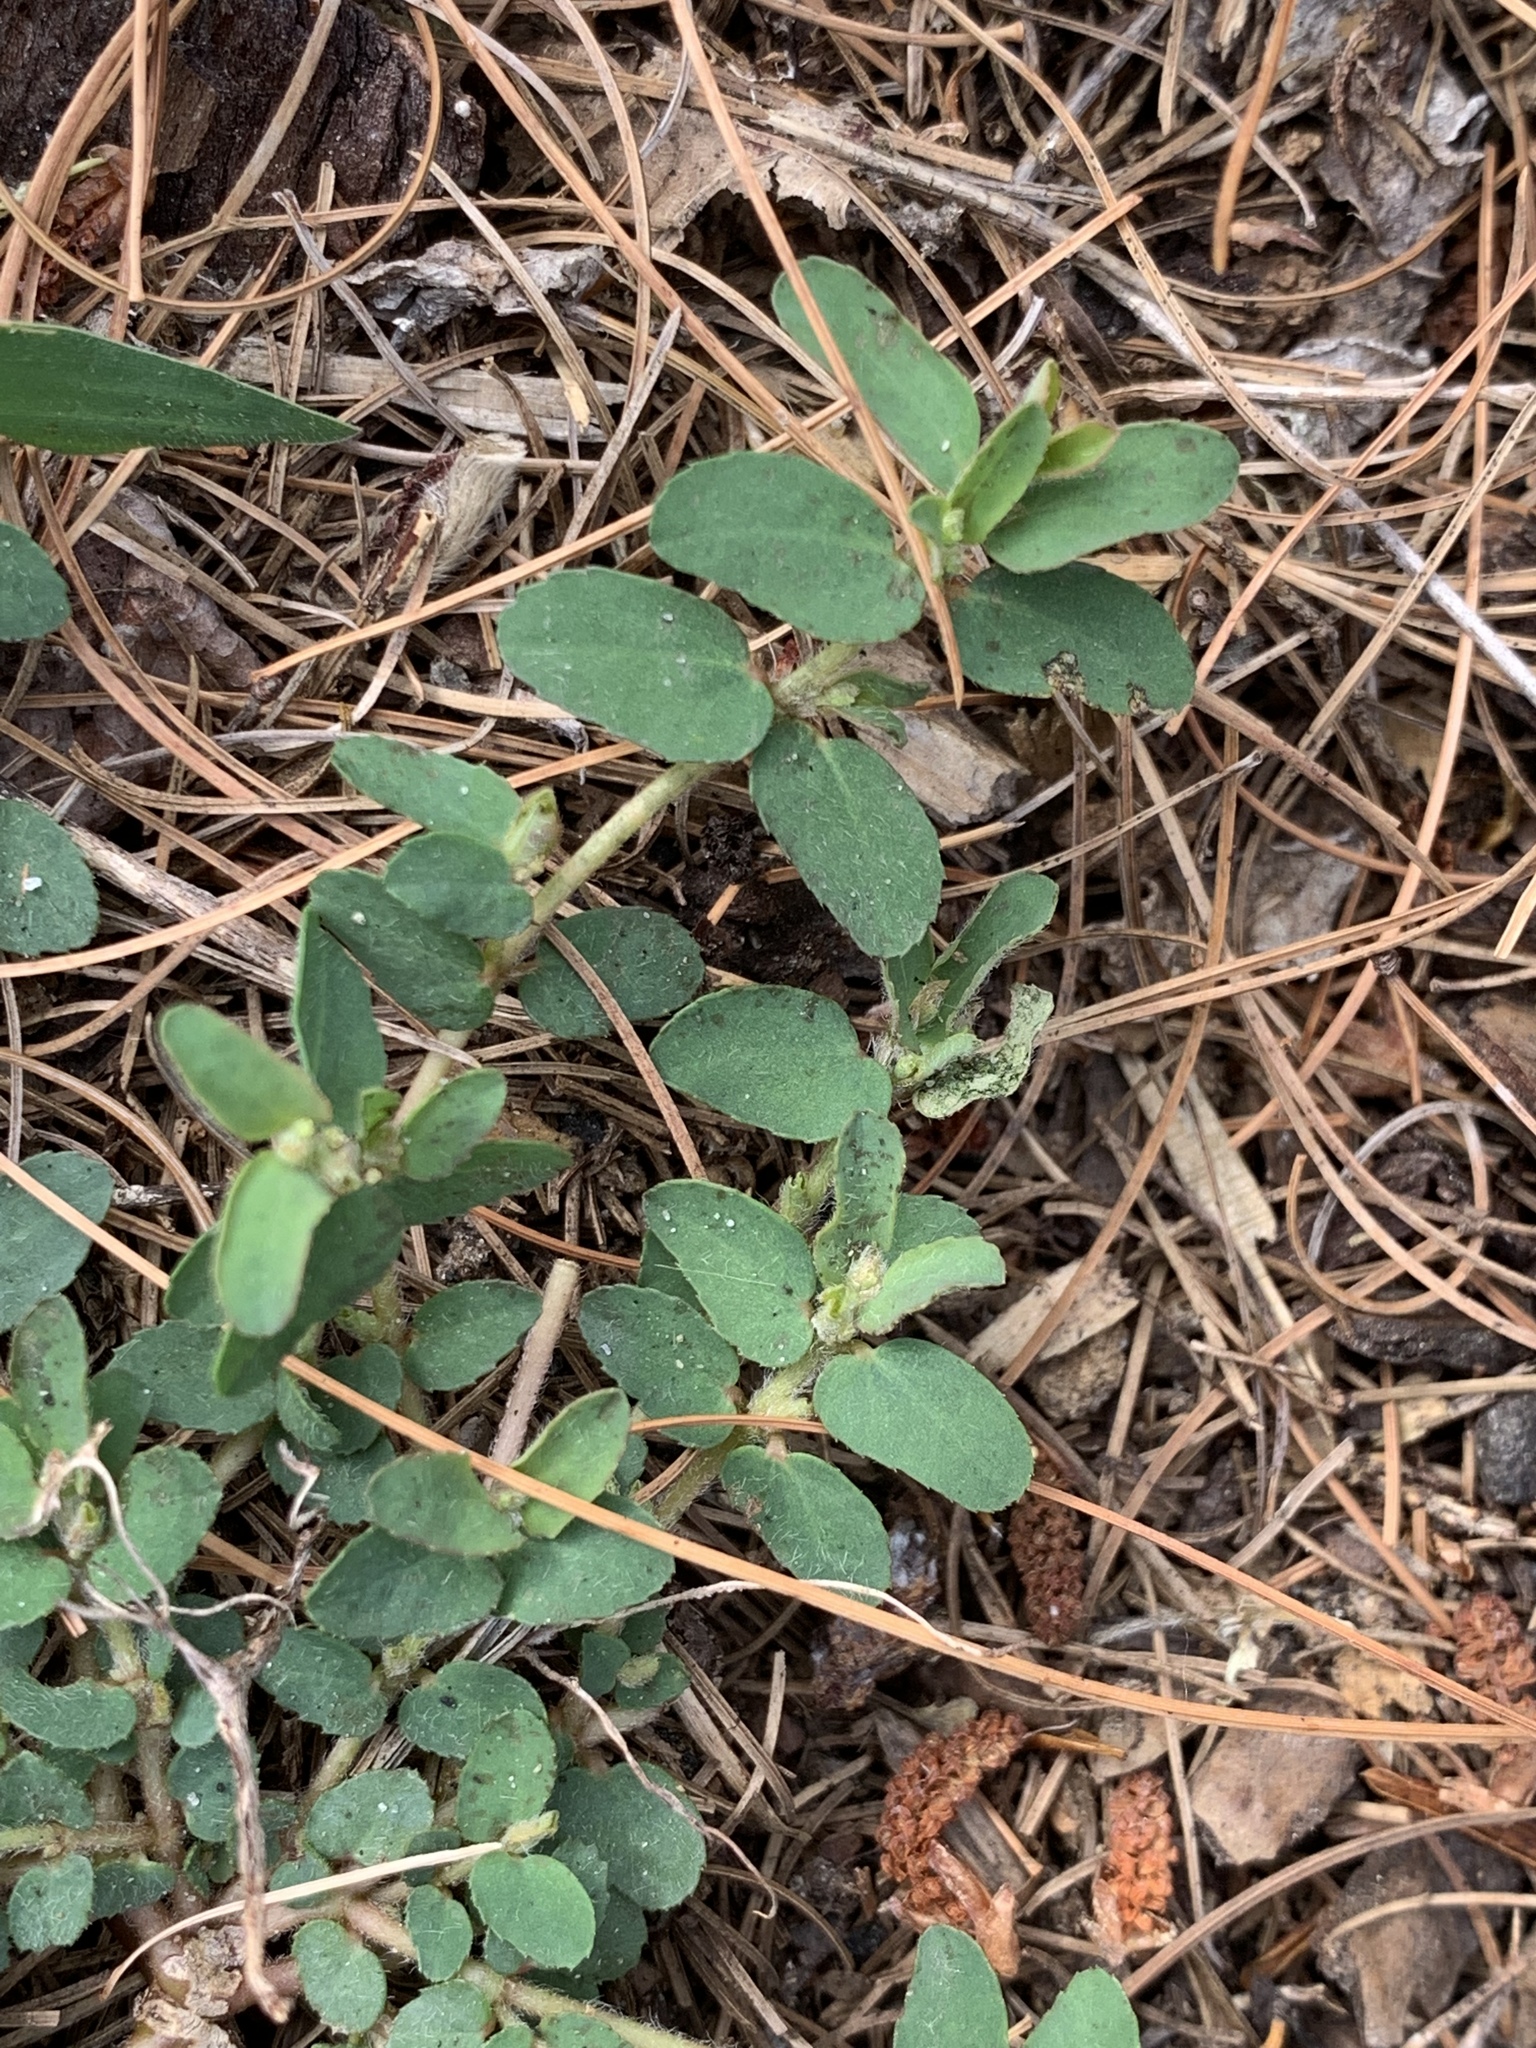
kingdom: Plantae
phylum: Tracheophyta
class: Magnoliopsida
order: Malpighiales
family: Euphorbiaceae
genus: Euphorbia
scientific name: Euphorbia maculata
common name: Spotted spurge
